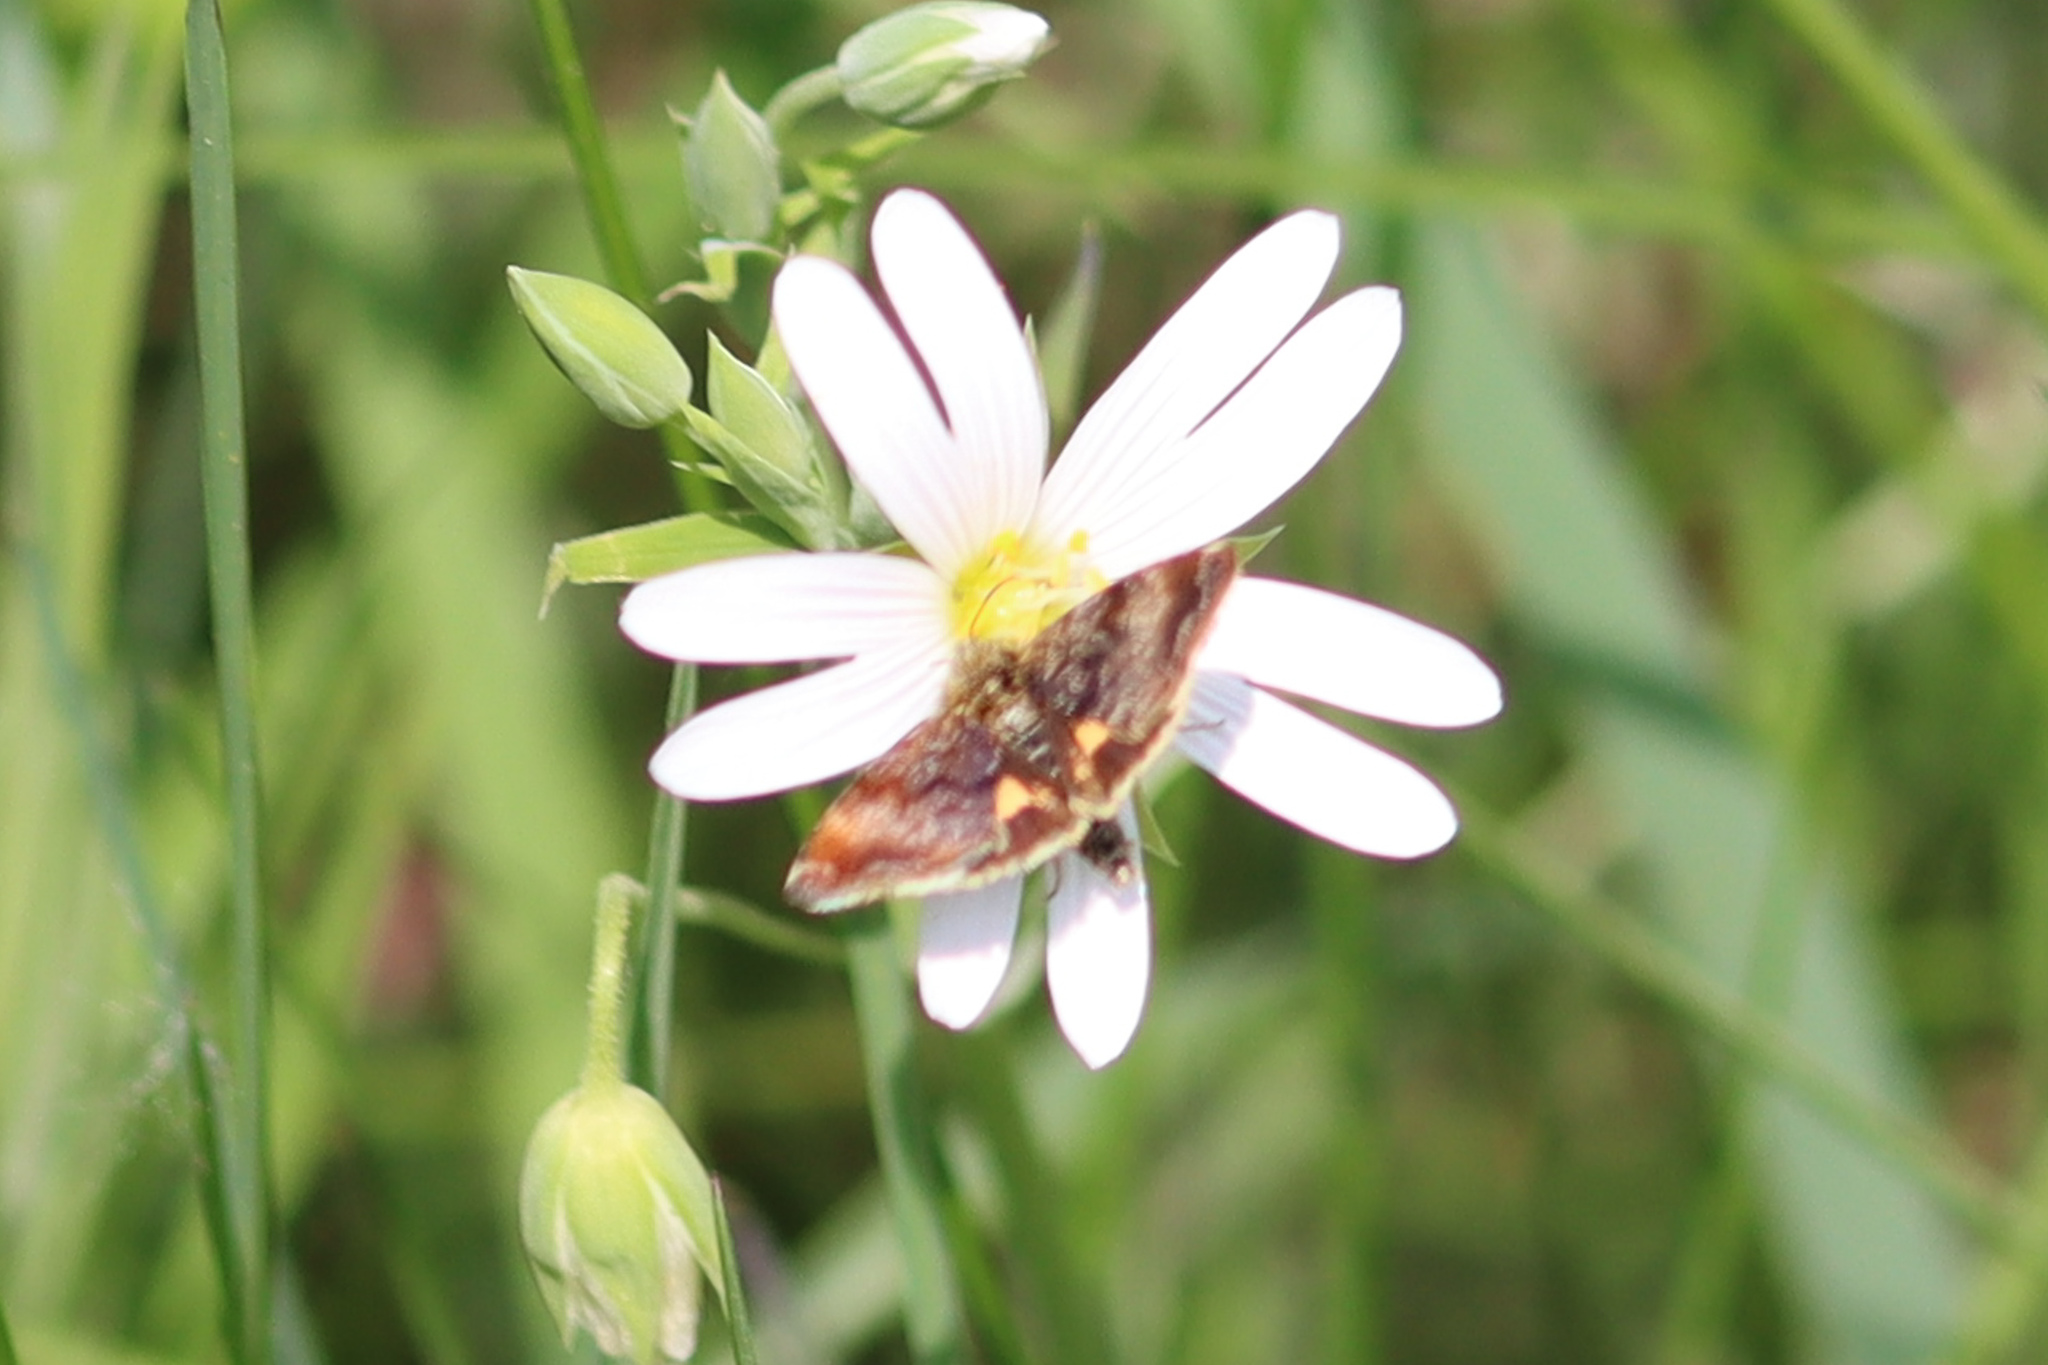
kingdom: Animalia
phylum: Arthropoda
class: Insecta
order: Lepidoptera
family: Noctuidae
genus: Panemeria
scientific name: Panemeria tenebrata
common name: Small yellow underwing
